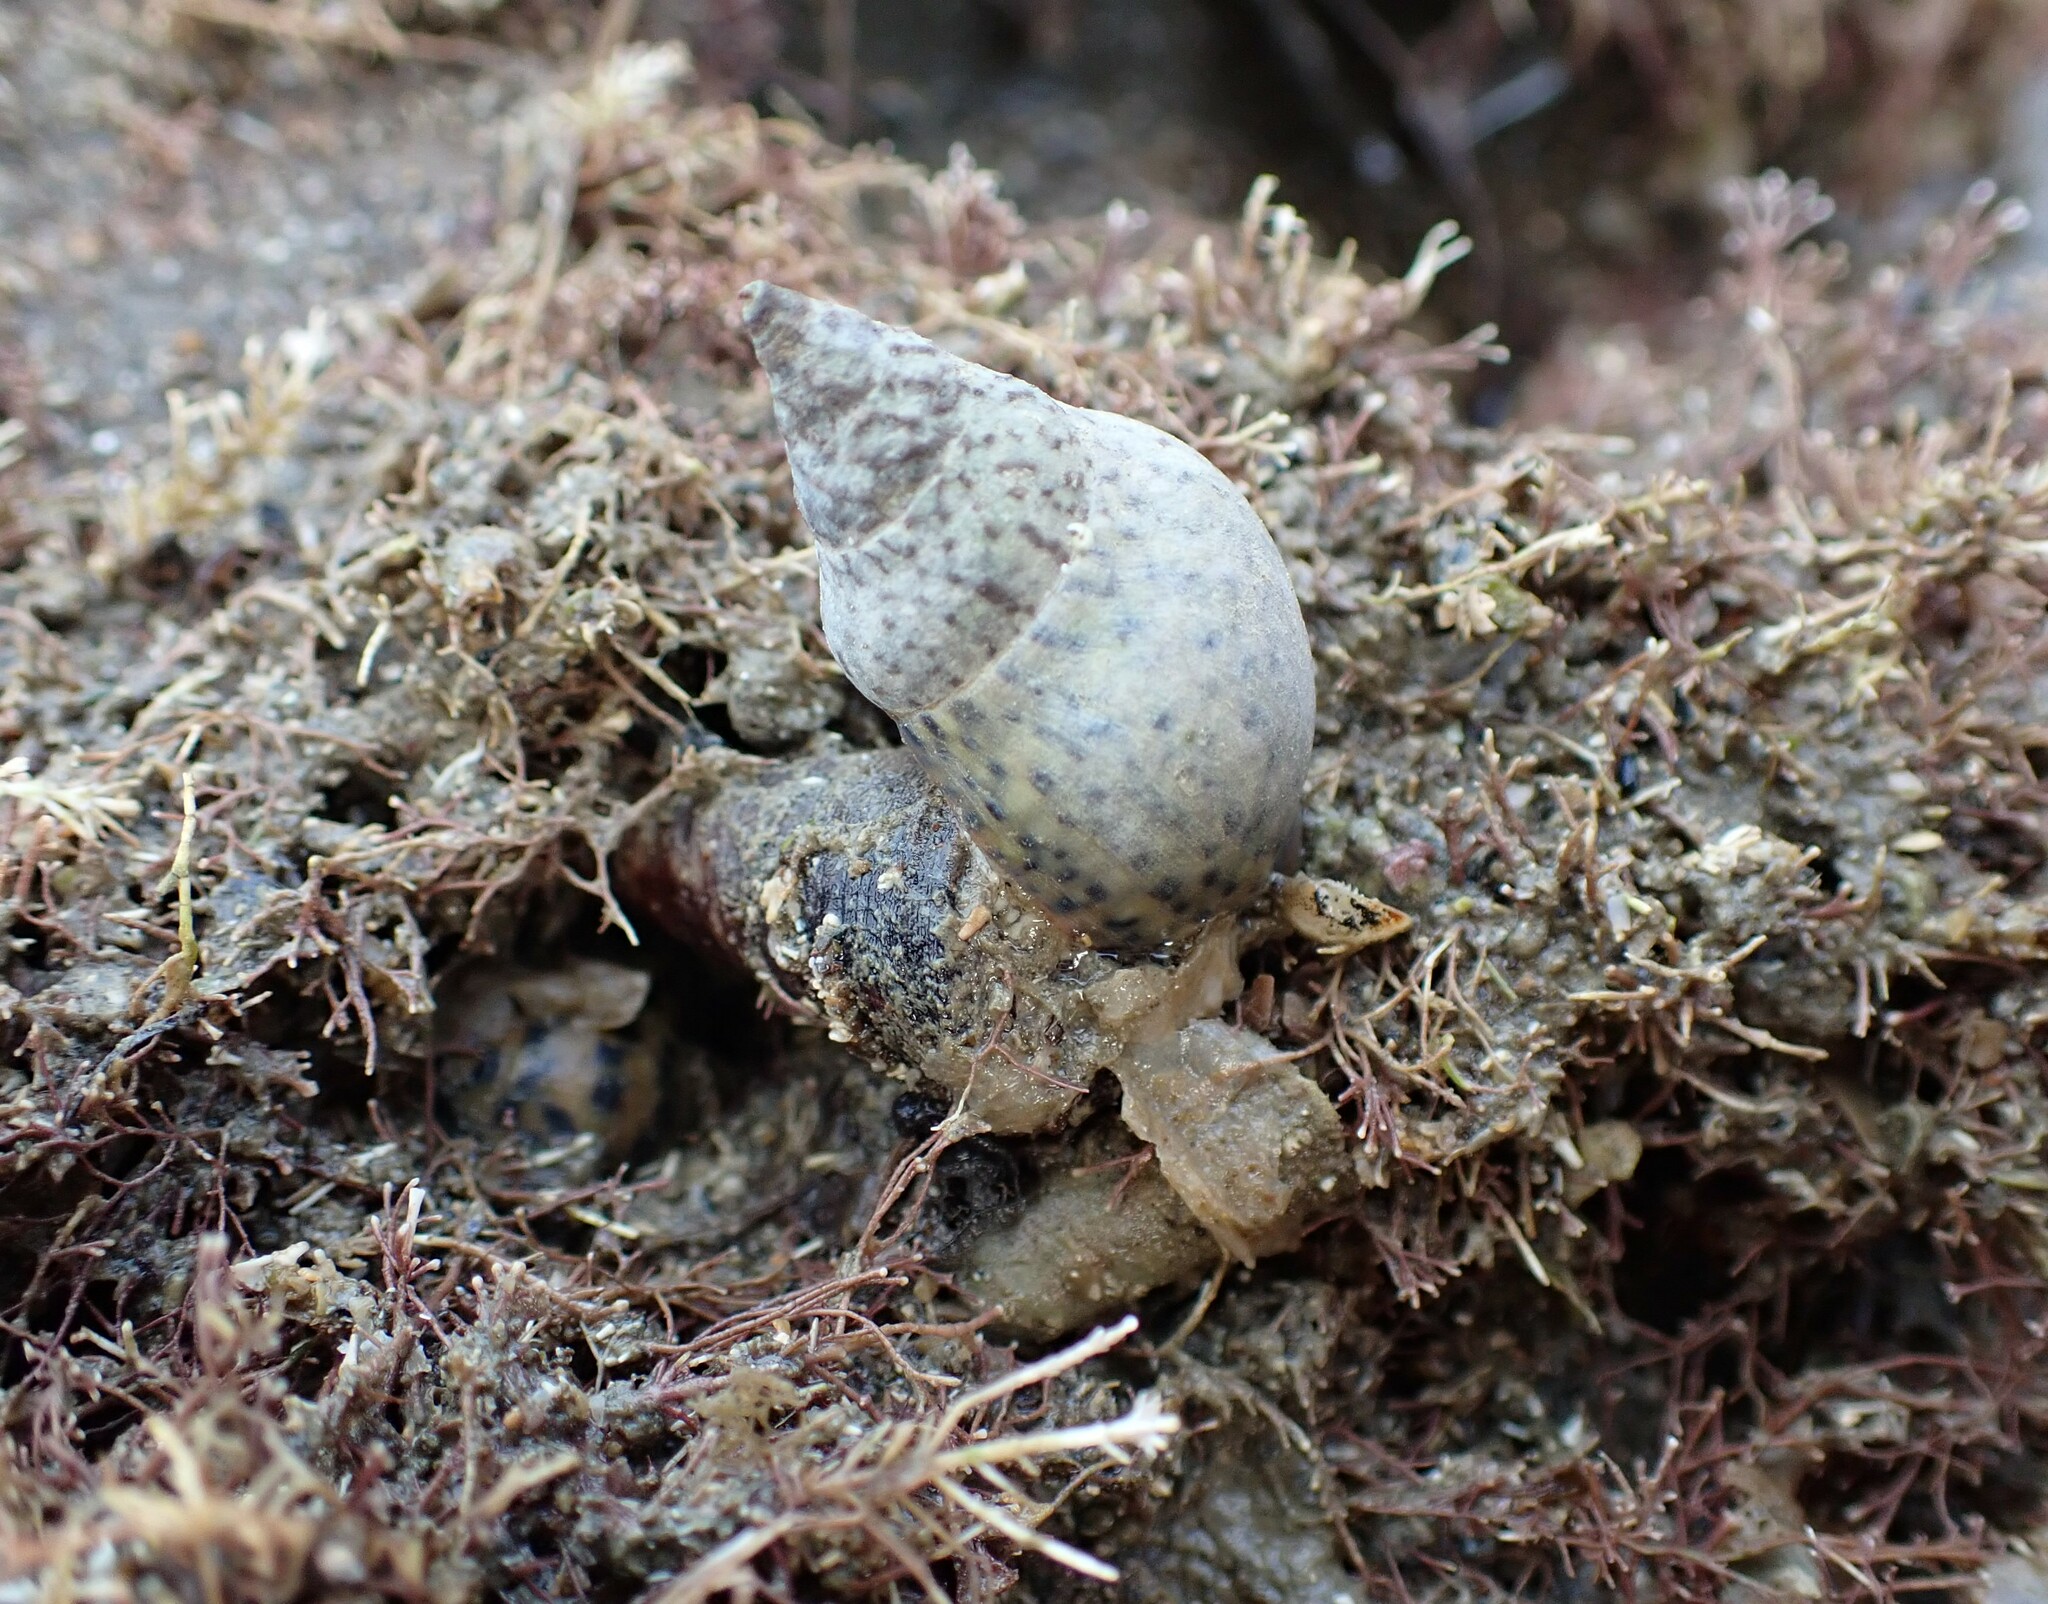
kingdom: Animalia
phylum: Mollusca
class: Gastropoda
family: Turritellidae
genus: Maoricolpus
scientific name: Maoricolpus roseus
